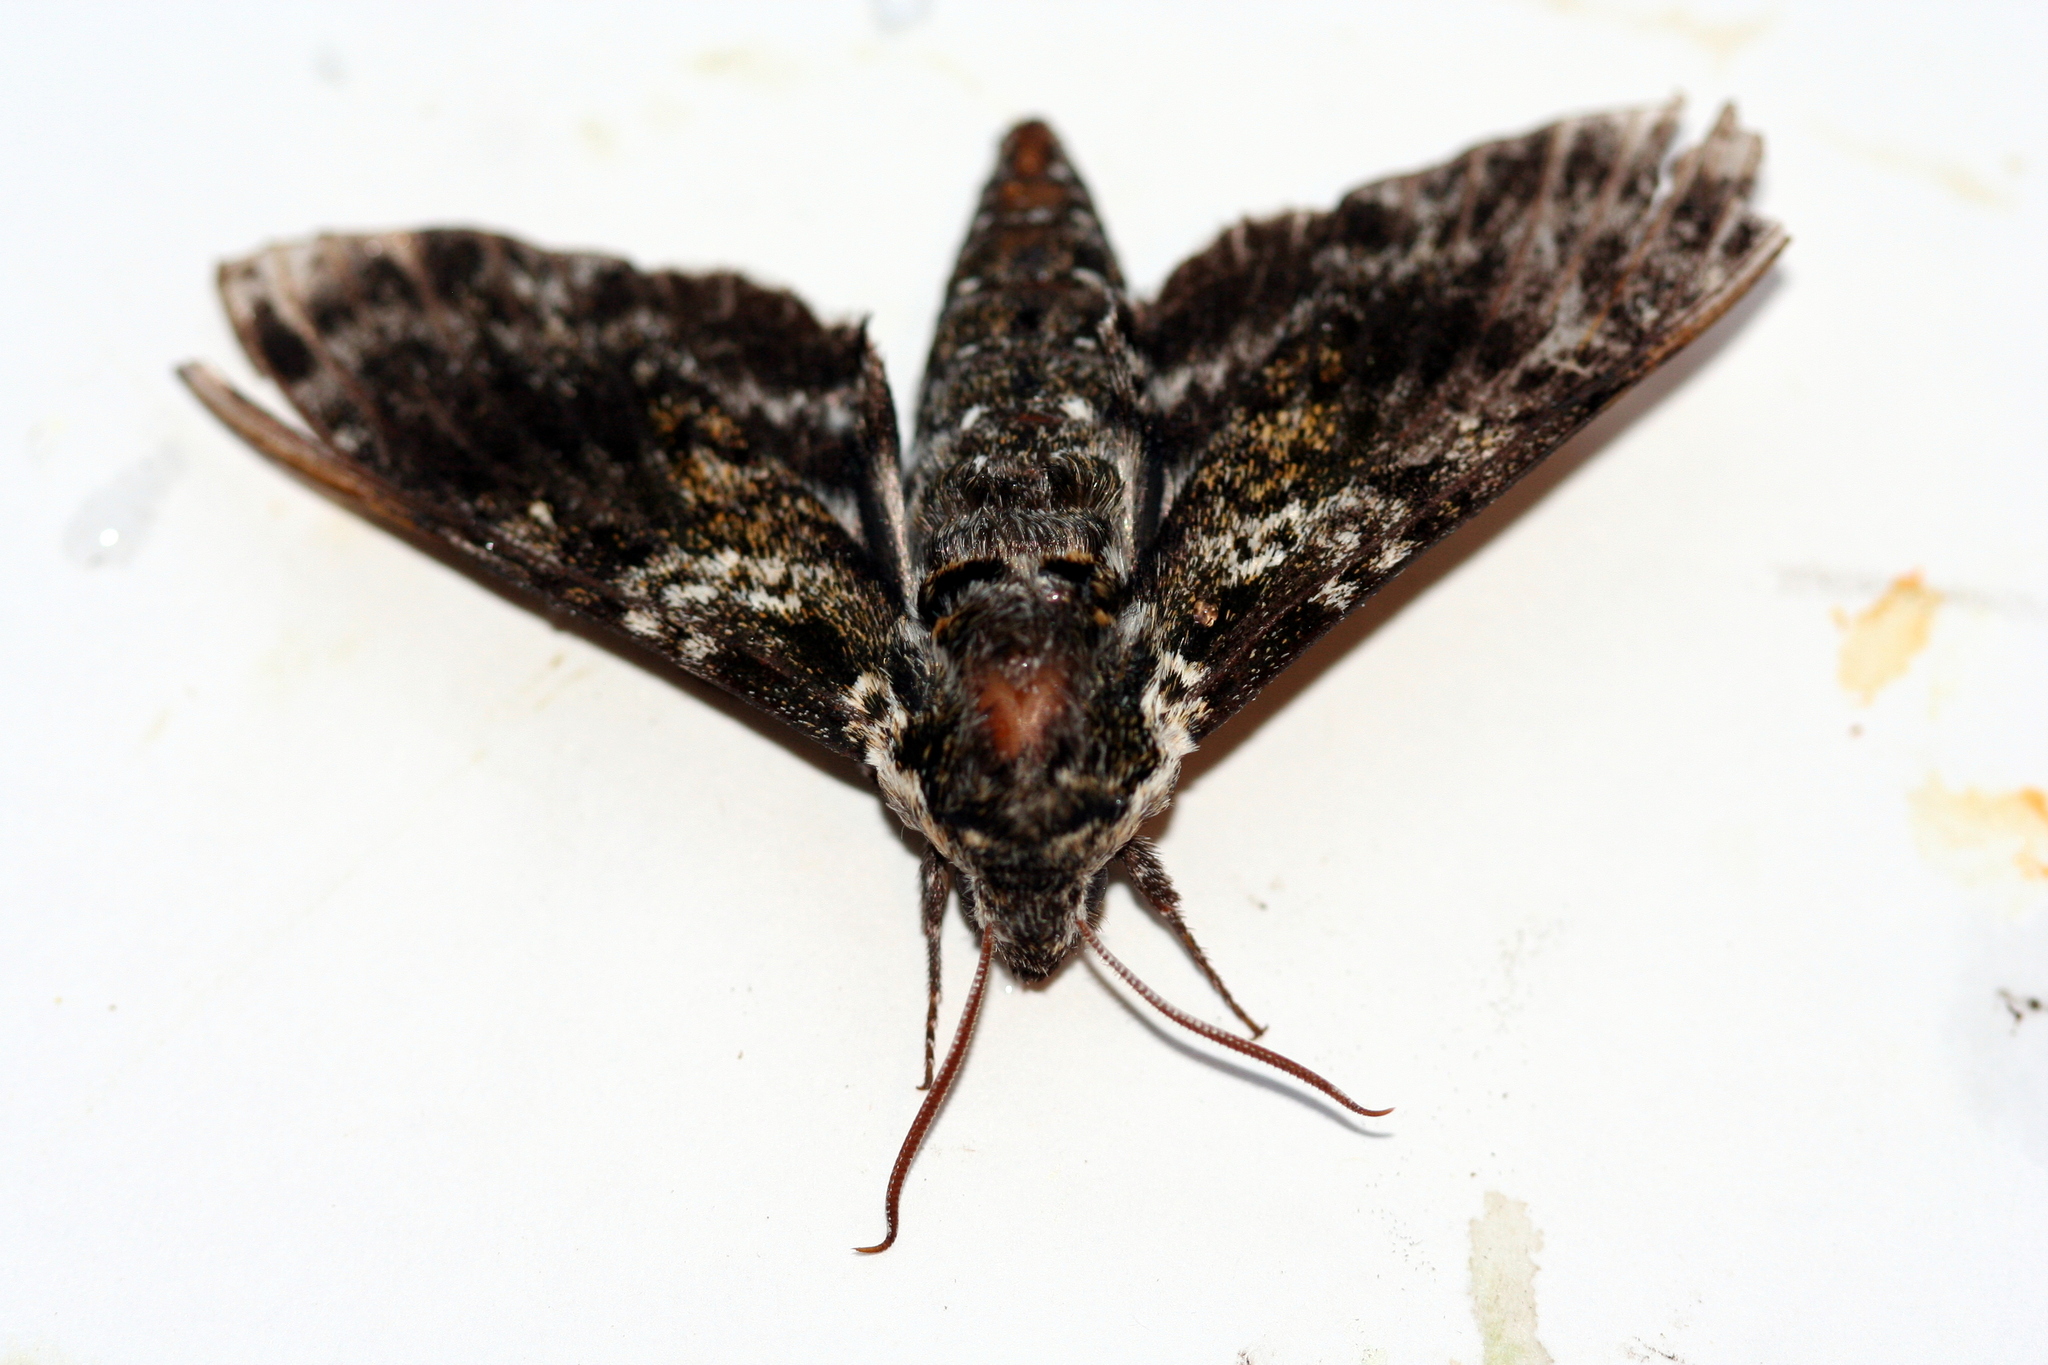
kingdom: Animalia
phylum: Arthropoda
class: Insecta
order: Lepidoptera
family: Sphingidae
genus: Dolba
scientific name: Dolba hyloeus
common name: Pawpaw sphinx
